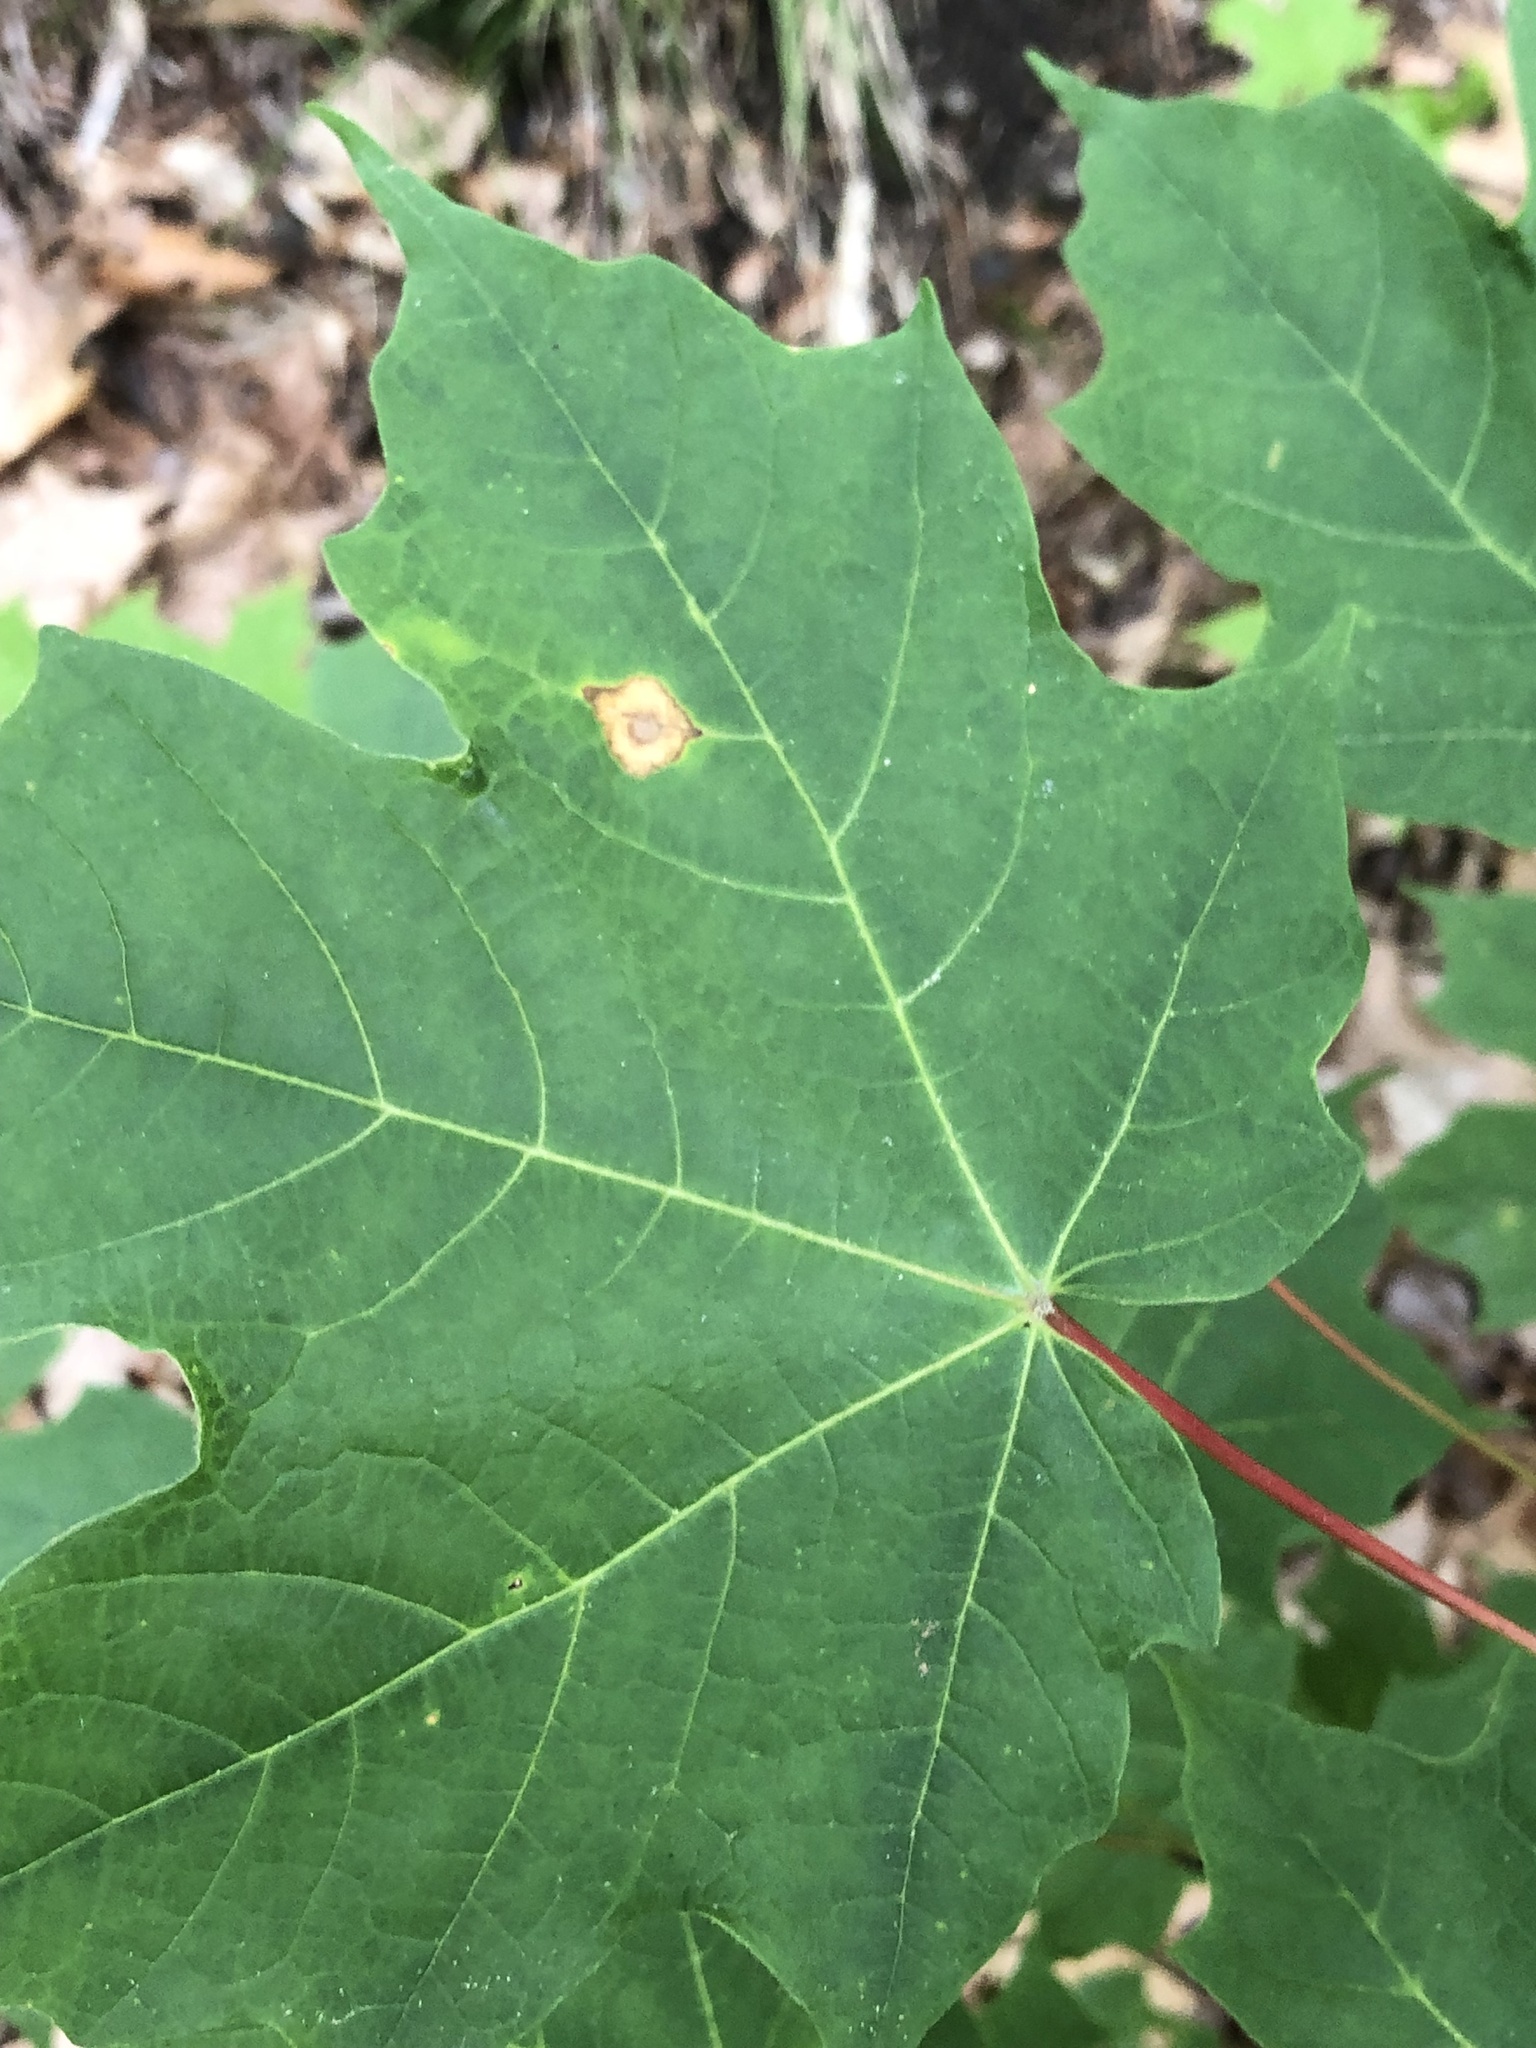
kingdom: Plantae
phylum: Tracheophyta
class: Magnoliopsida
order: Sapindales
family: Sapindaceae
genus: Acer
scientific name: Acer saccharum
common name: Sugar maple
